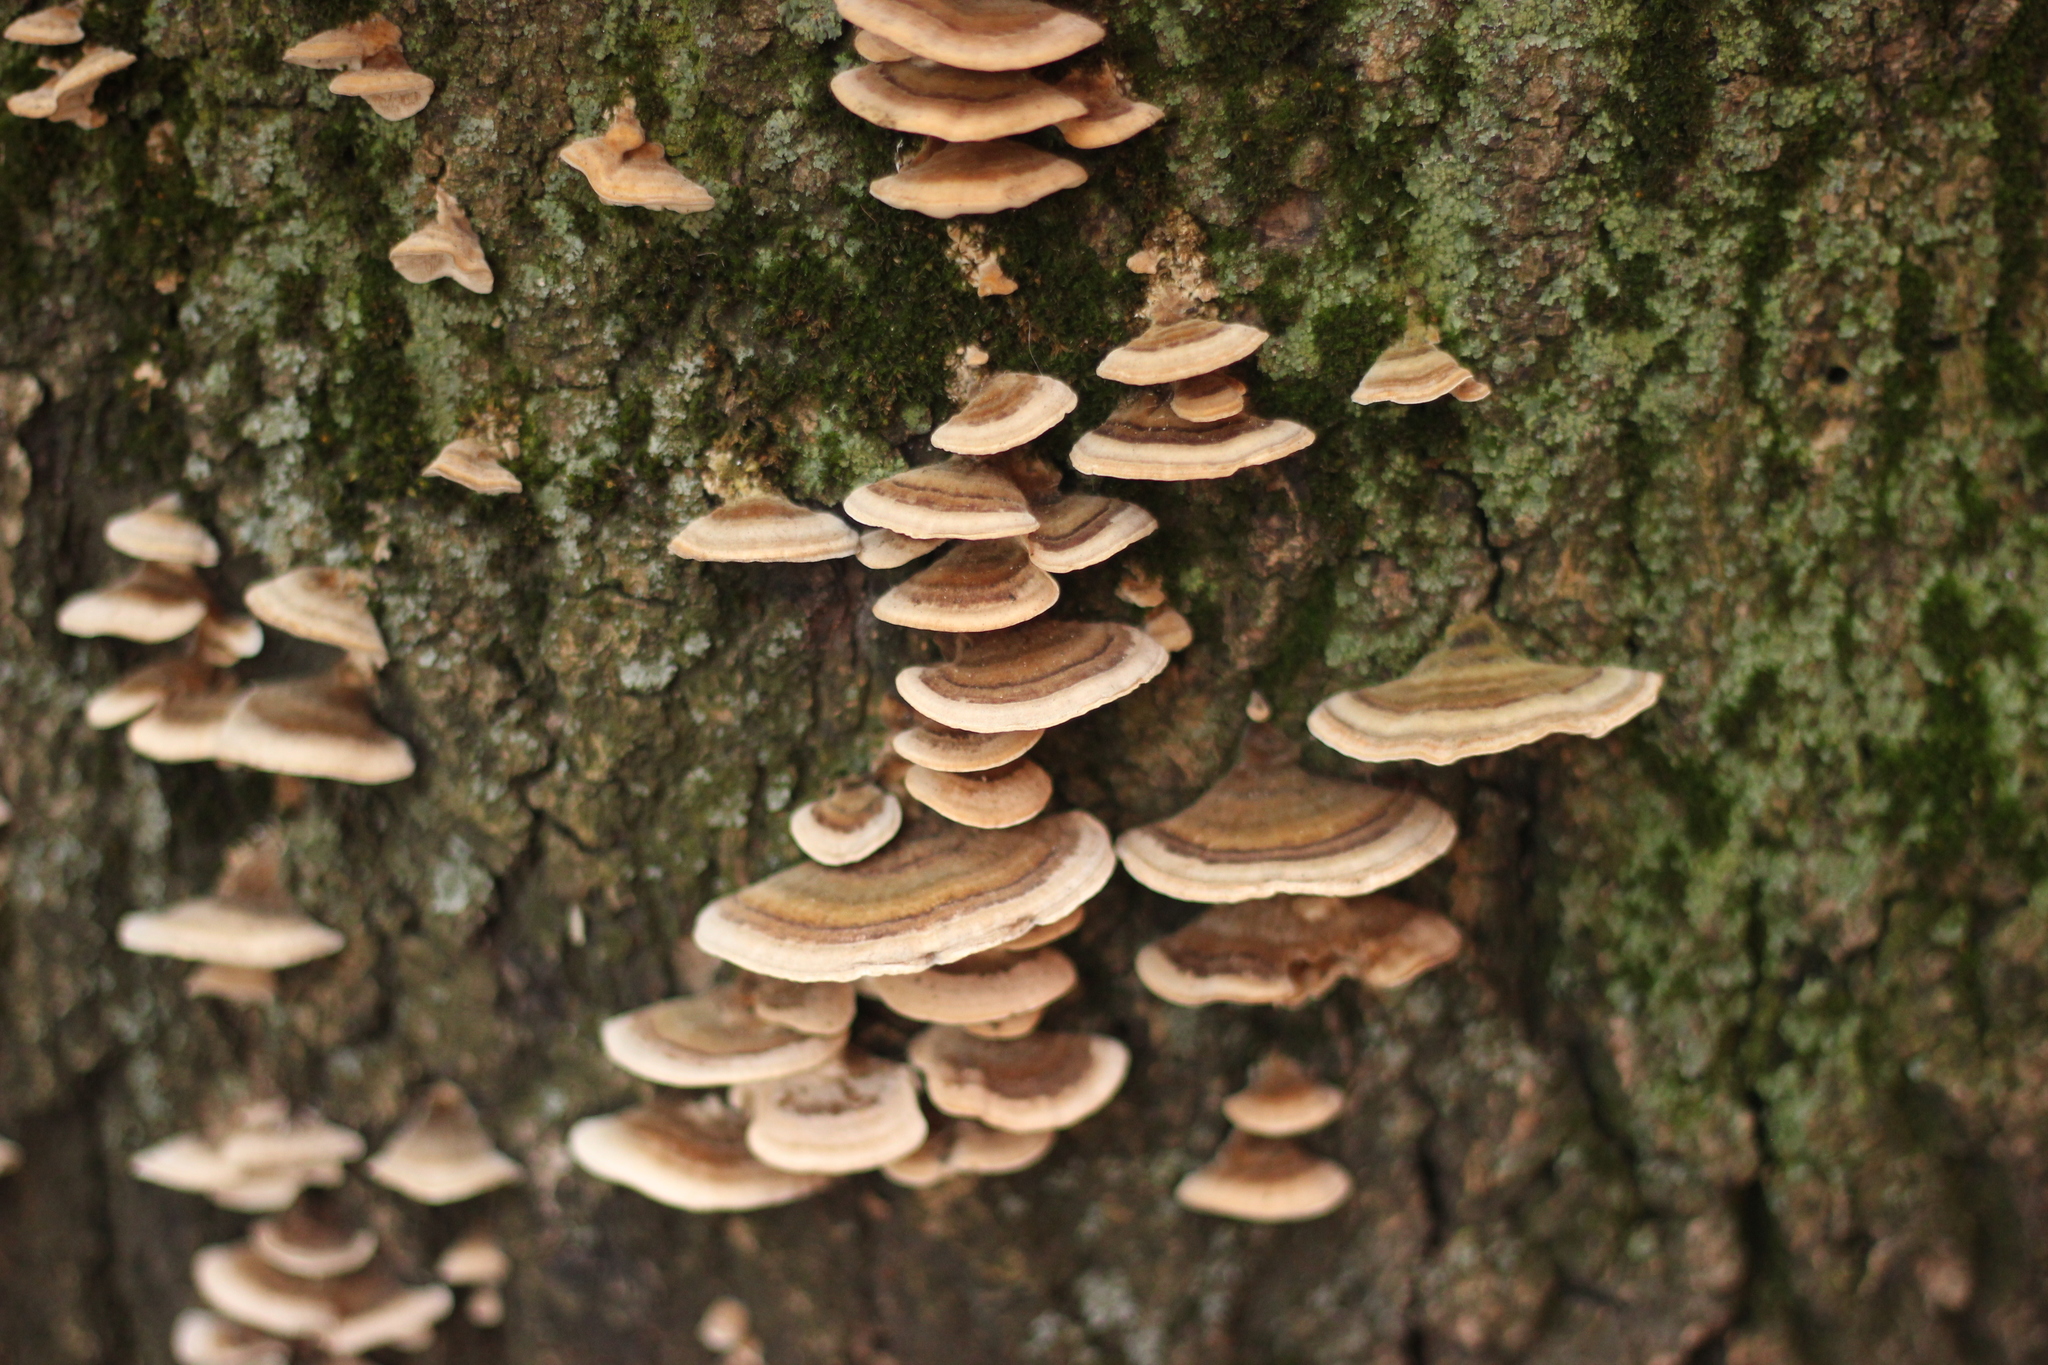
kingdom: Fungi
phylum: Basidiomycota
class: Agaricomycetes
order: Polyporales
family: Polyporaceae
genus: Trametes
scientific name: Trametes versicolor
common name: Turkeytail
